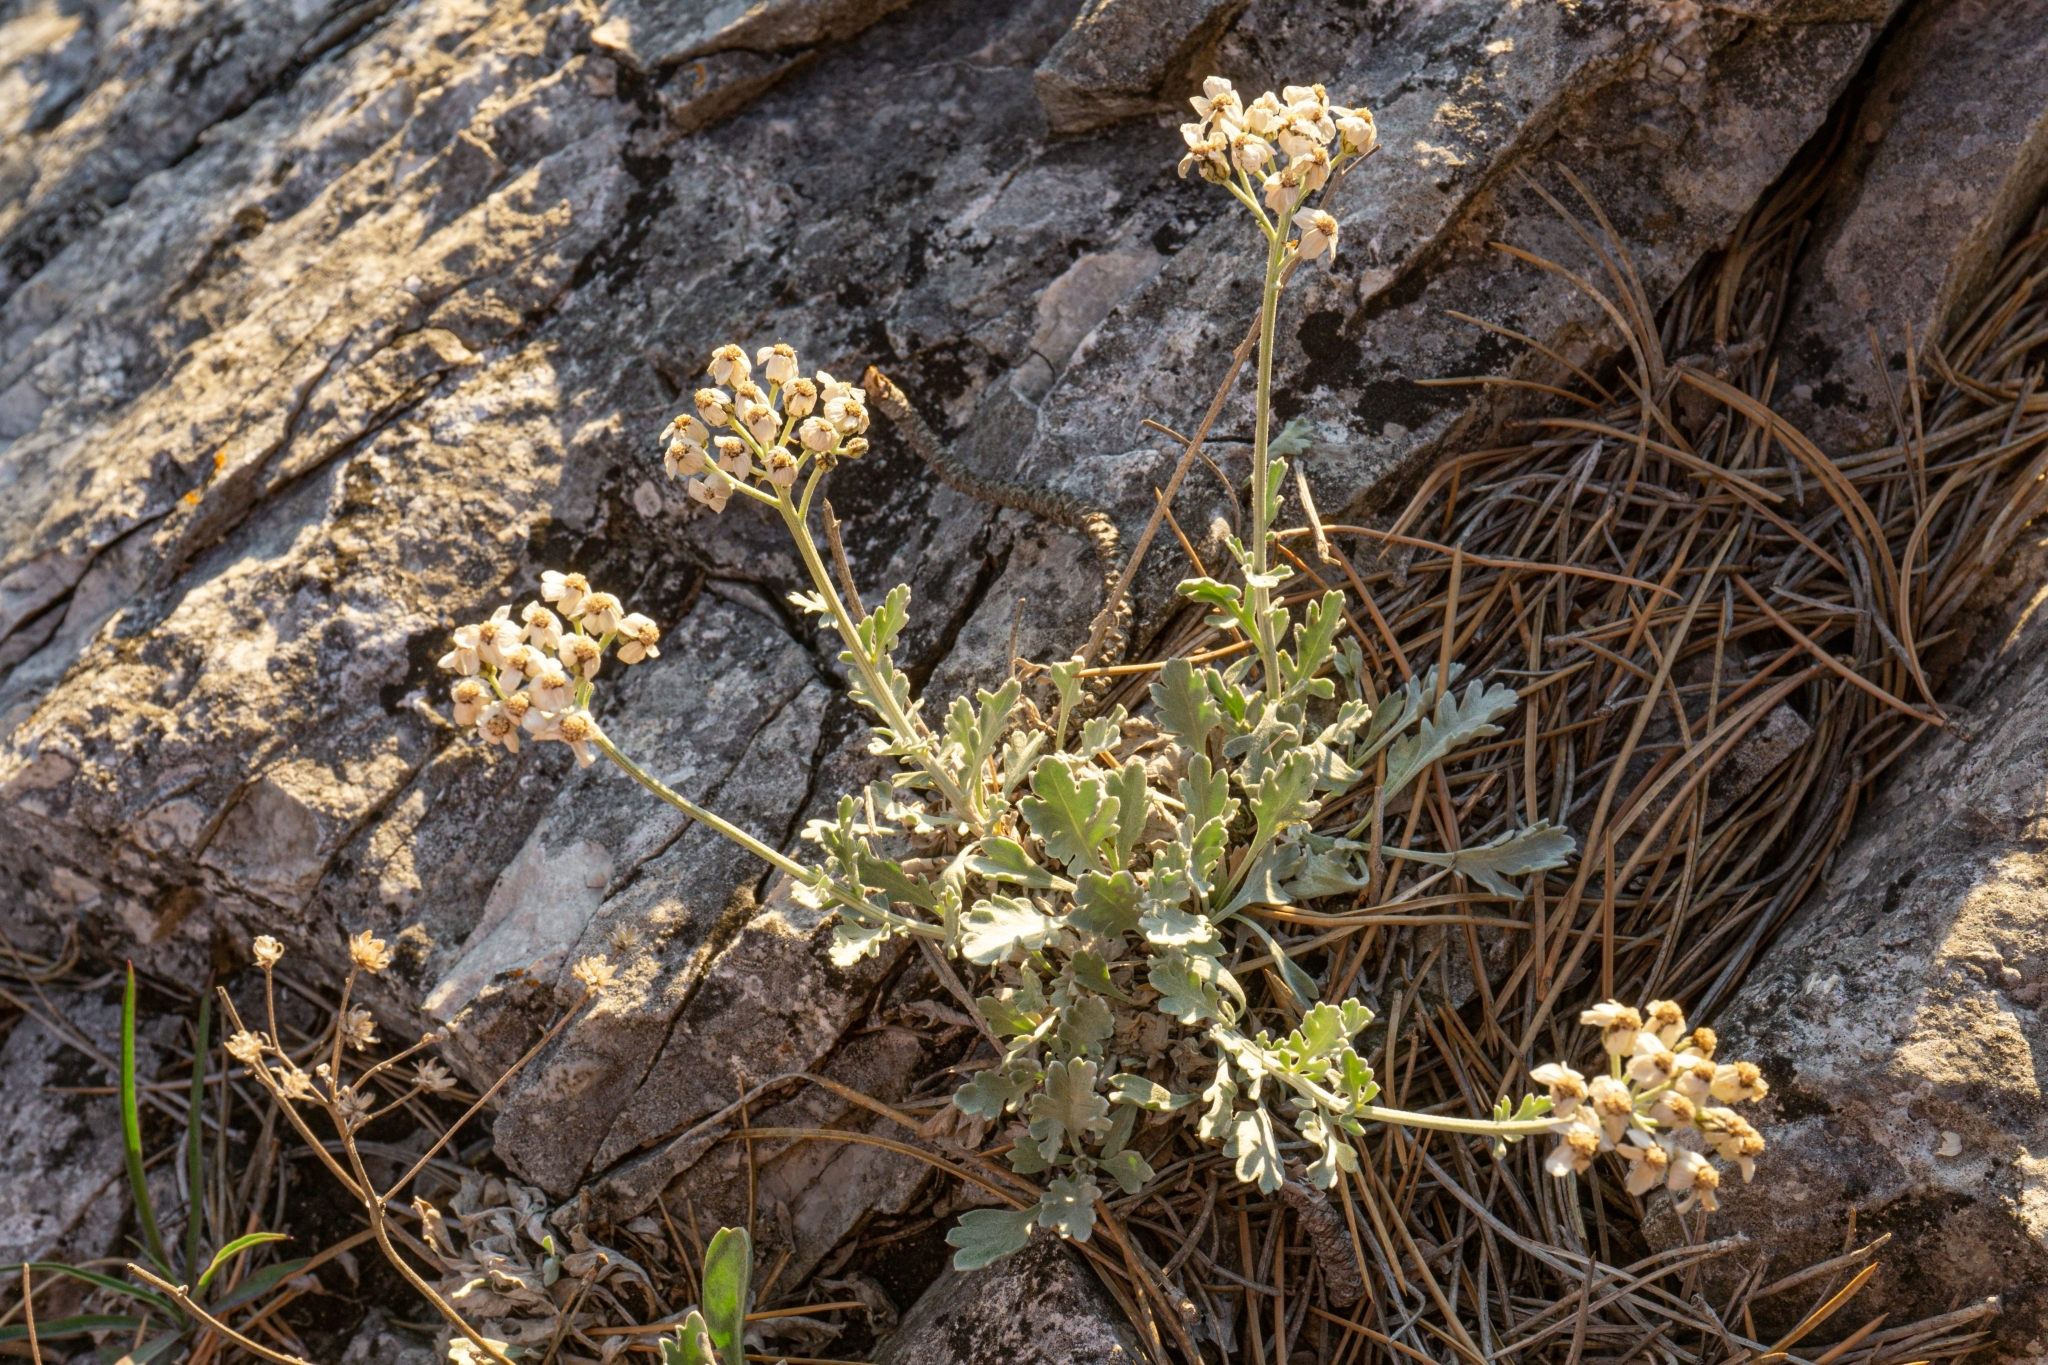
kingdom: Plantae
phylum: Tracheophyta
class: Magnoliopsida
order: Asterales
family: Asteraceae
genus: Achillea
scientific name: Achillea clavennae
